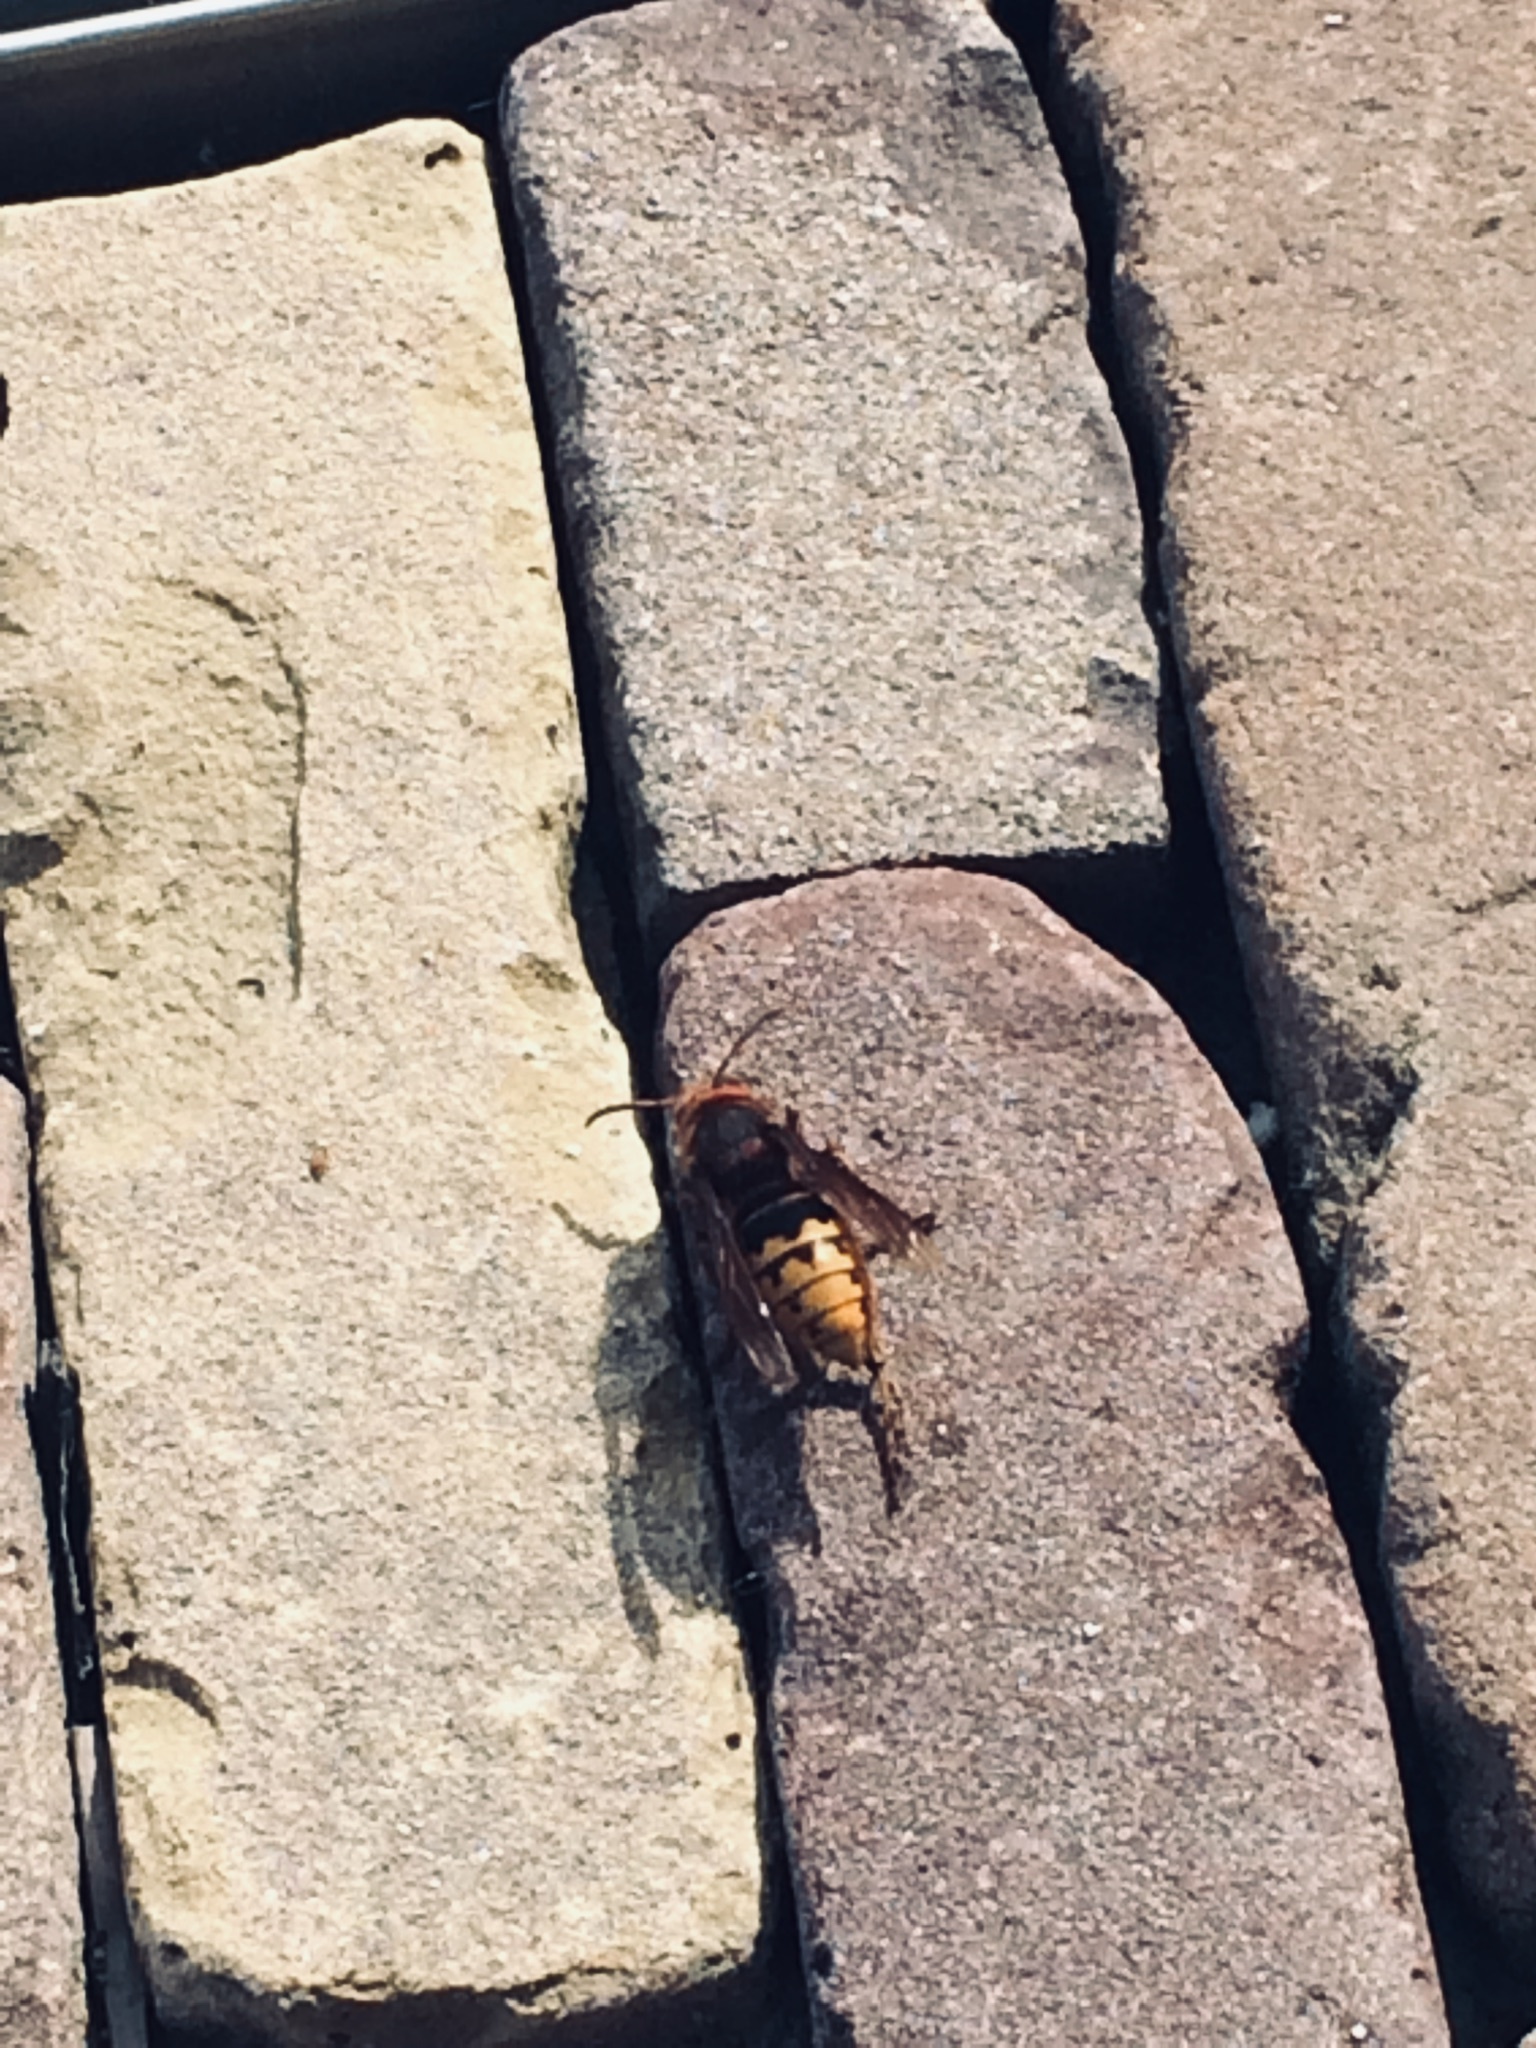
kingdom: Animalia
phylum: Arthropoda
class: Insecta
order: Hymenoptera
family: Vespidae
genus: Vespa
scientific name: Vespa crabro
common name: Hornet
